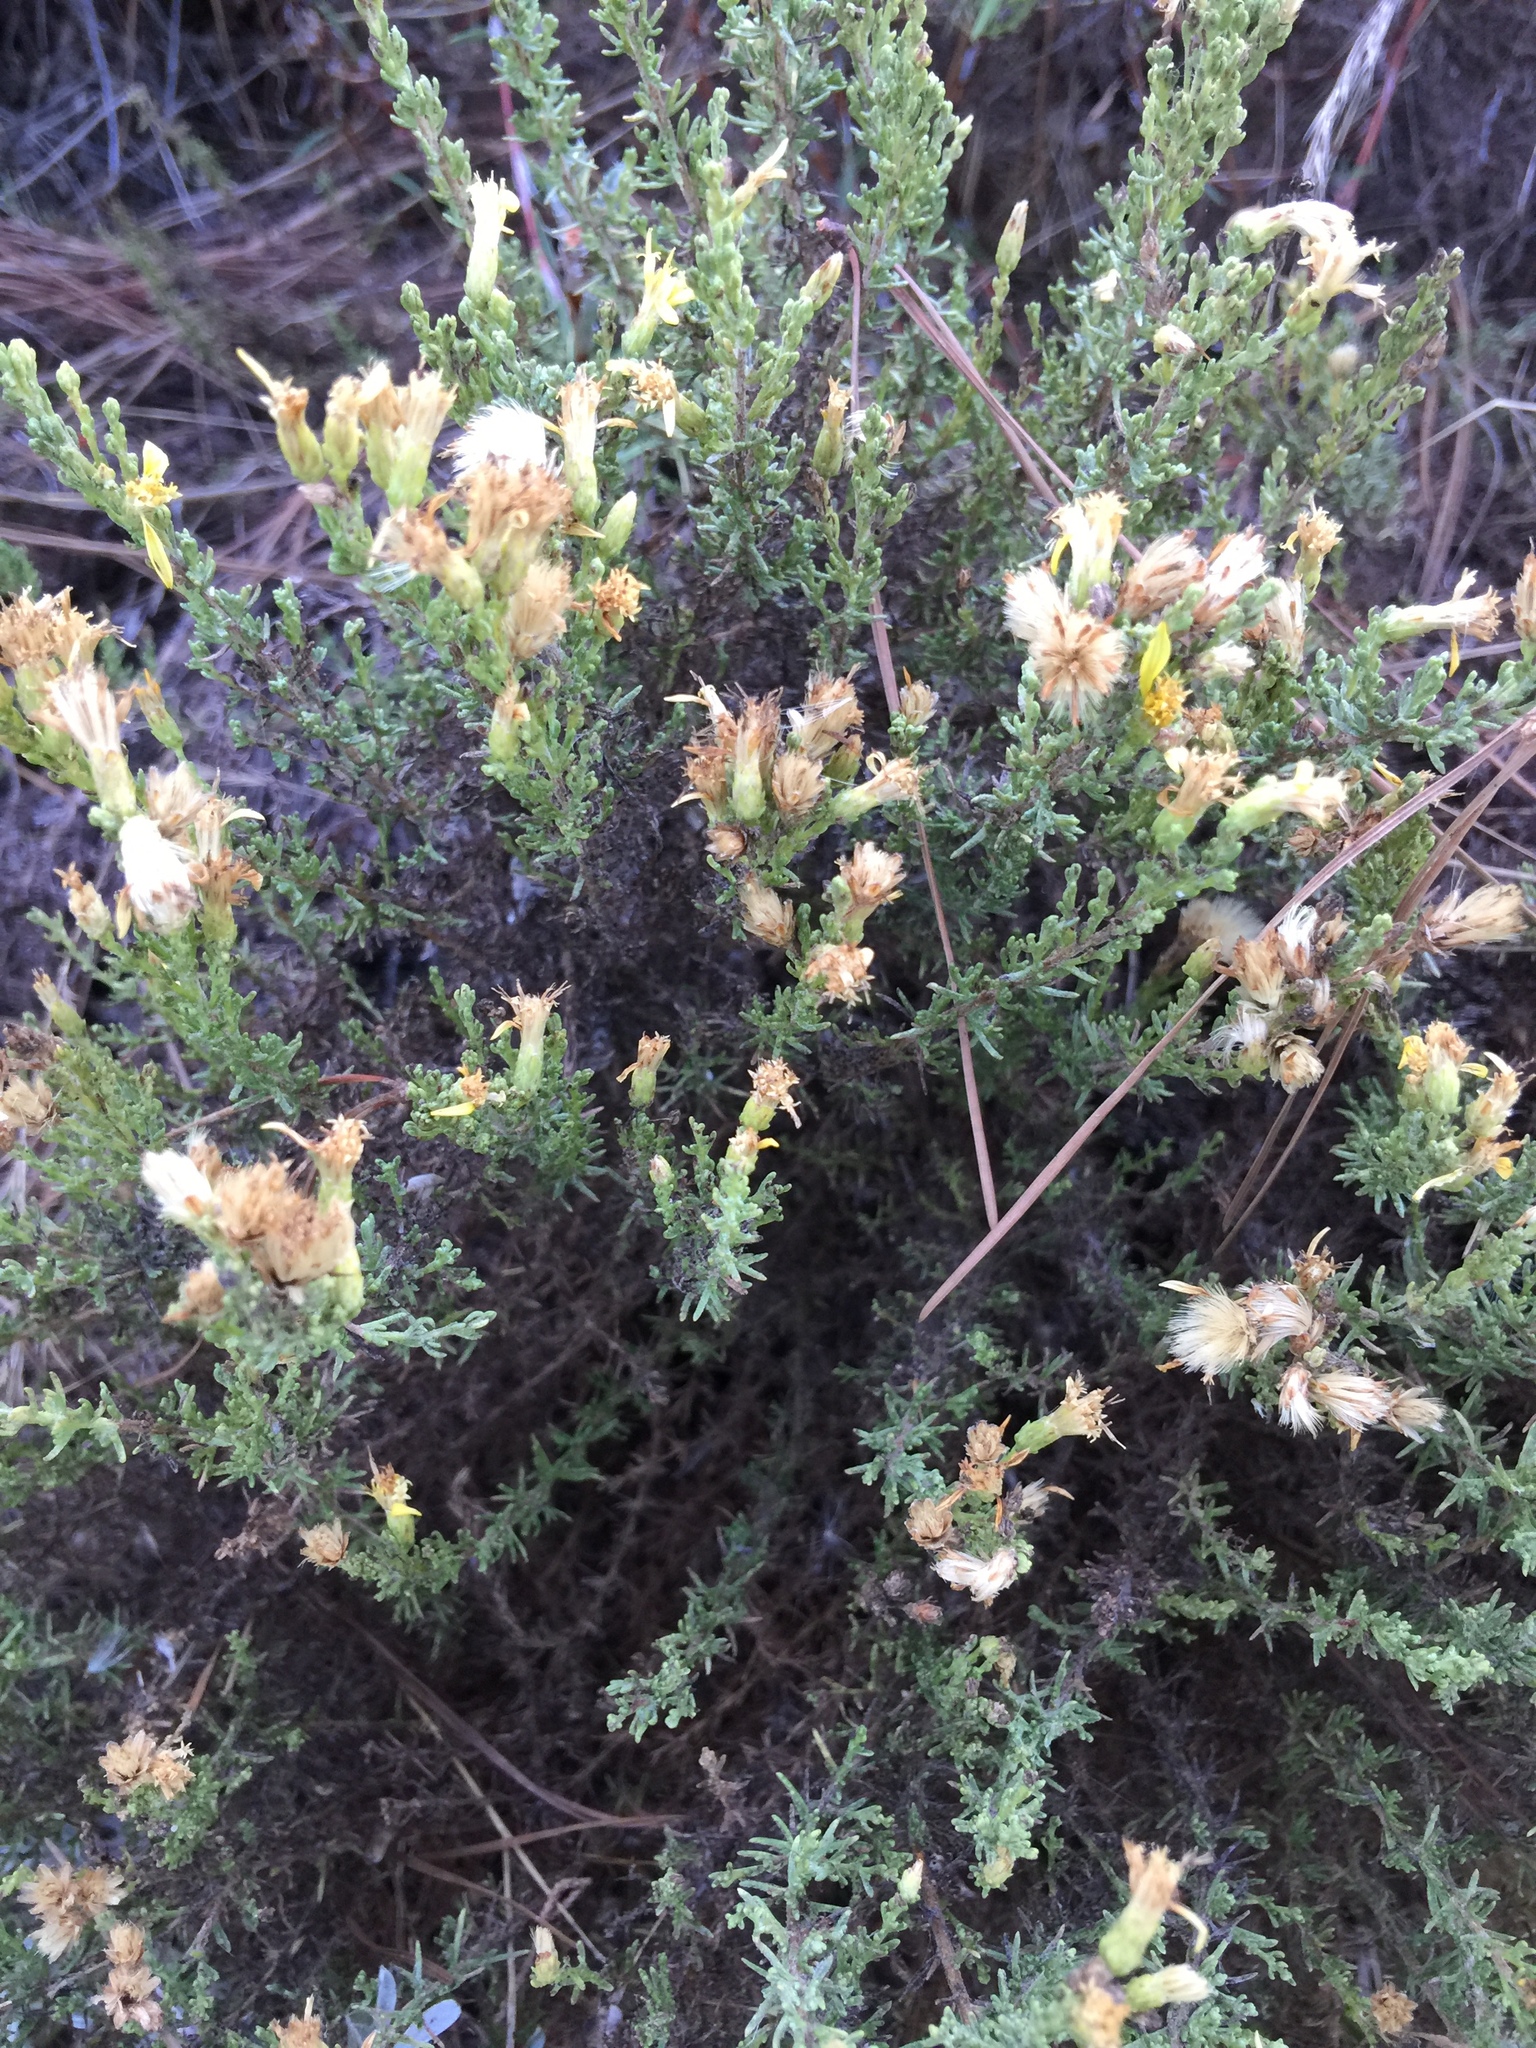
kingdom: Plantae
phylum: Tracheophyta
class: Magnoliopsida
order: Asterales
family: Asteraceae
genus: Ericameria
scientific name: Ericameria ericoides
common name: California goldenbush
